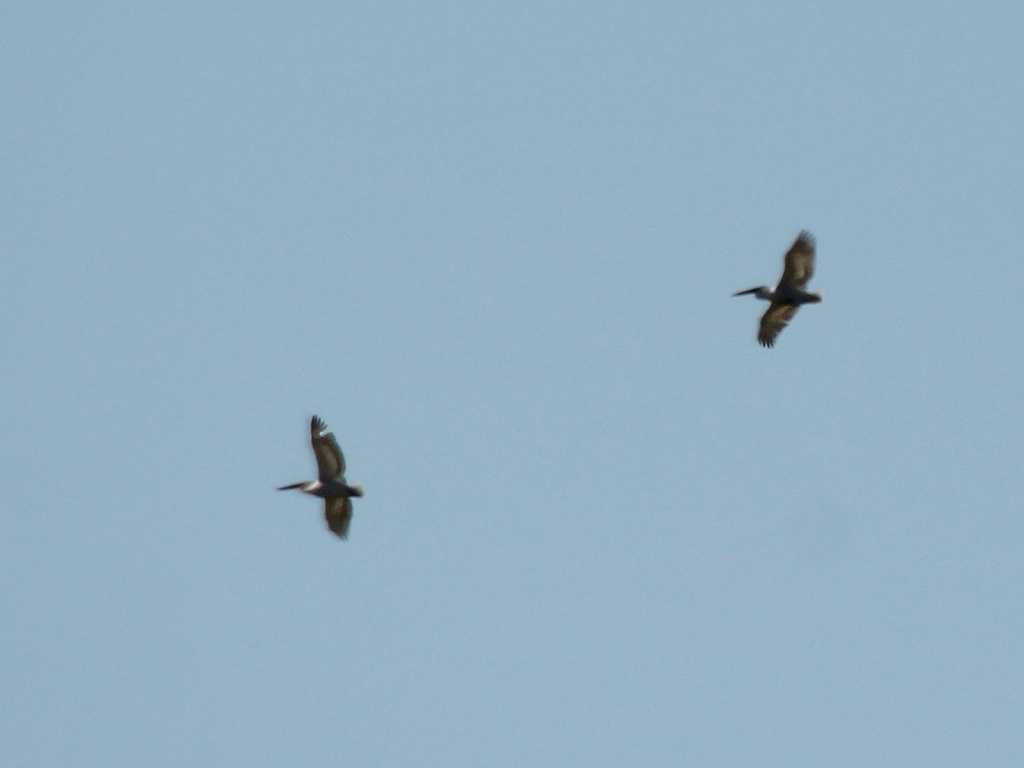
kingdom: Animalia
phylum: Chordata
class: Aves
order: Pelecaniformes
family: Pelecanidae
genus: Pelecanus
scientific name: Pelecanus crispus
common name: Dalmatian pelican
